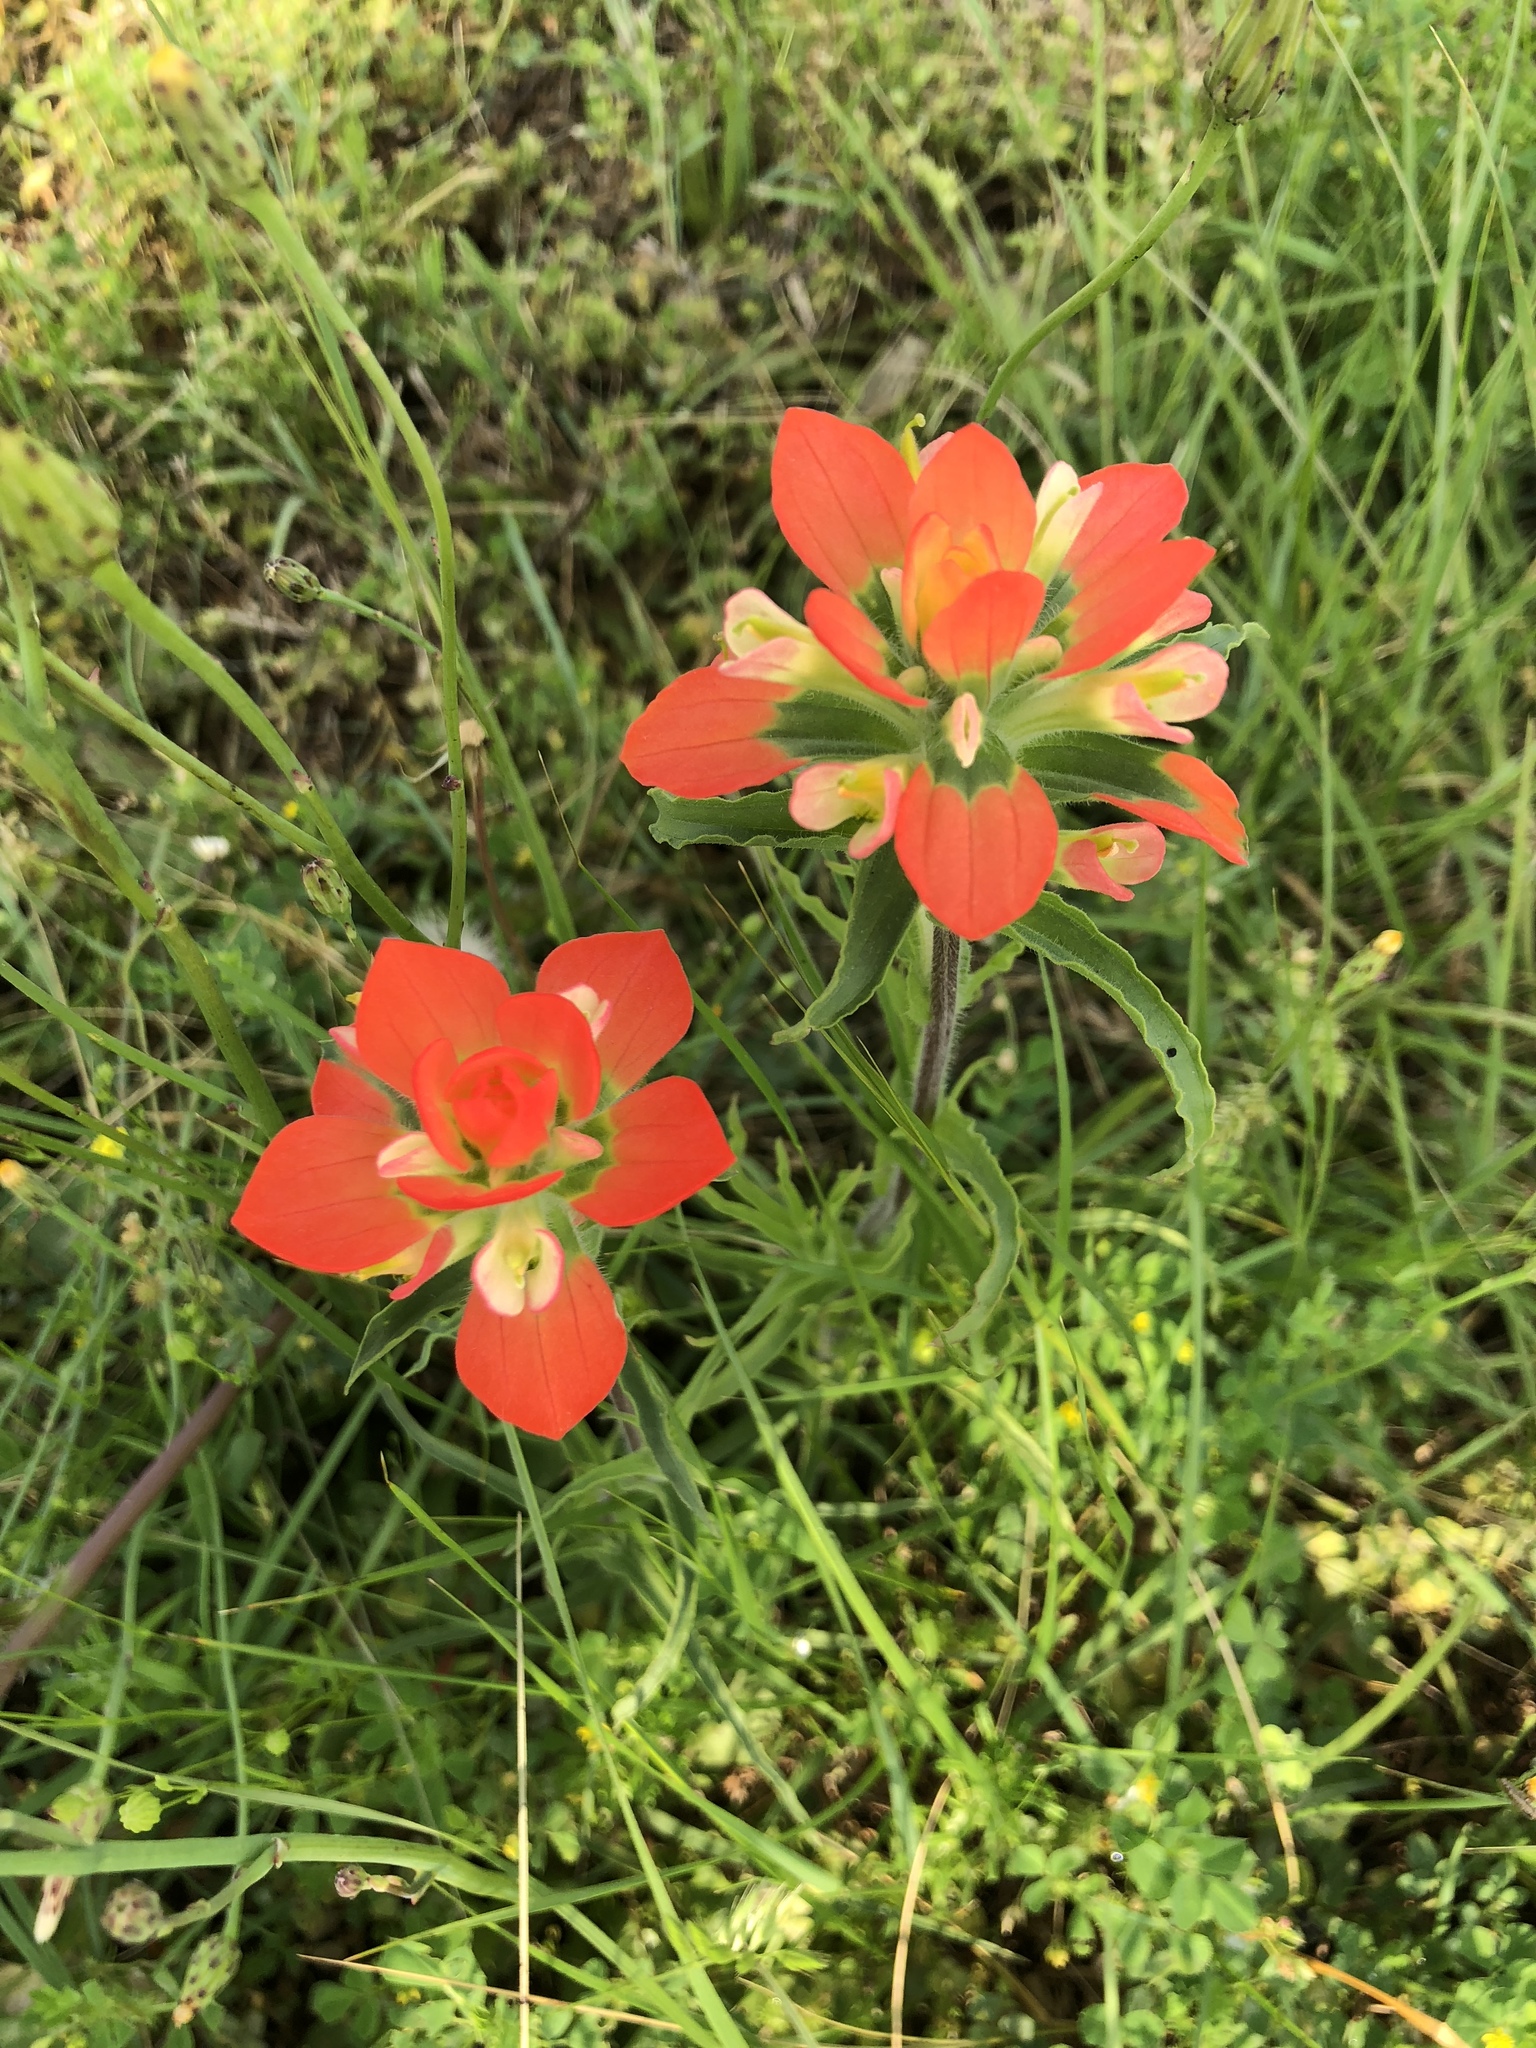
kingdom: Plantae
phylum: Tracheophyta
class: Magnoliopsida
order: Lamiales
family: Orobanchaceae
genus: Castilleja
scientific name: Castilleja indivisa
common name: Texas paintbrush
